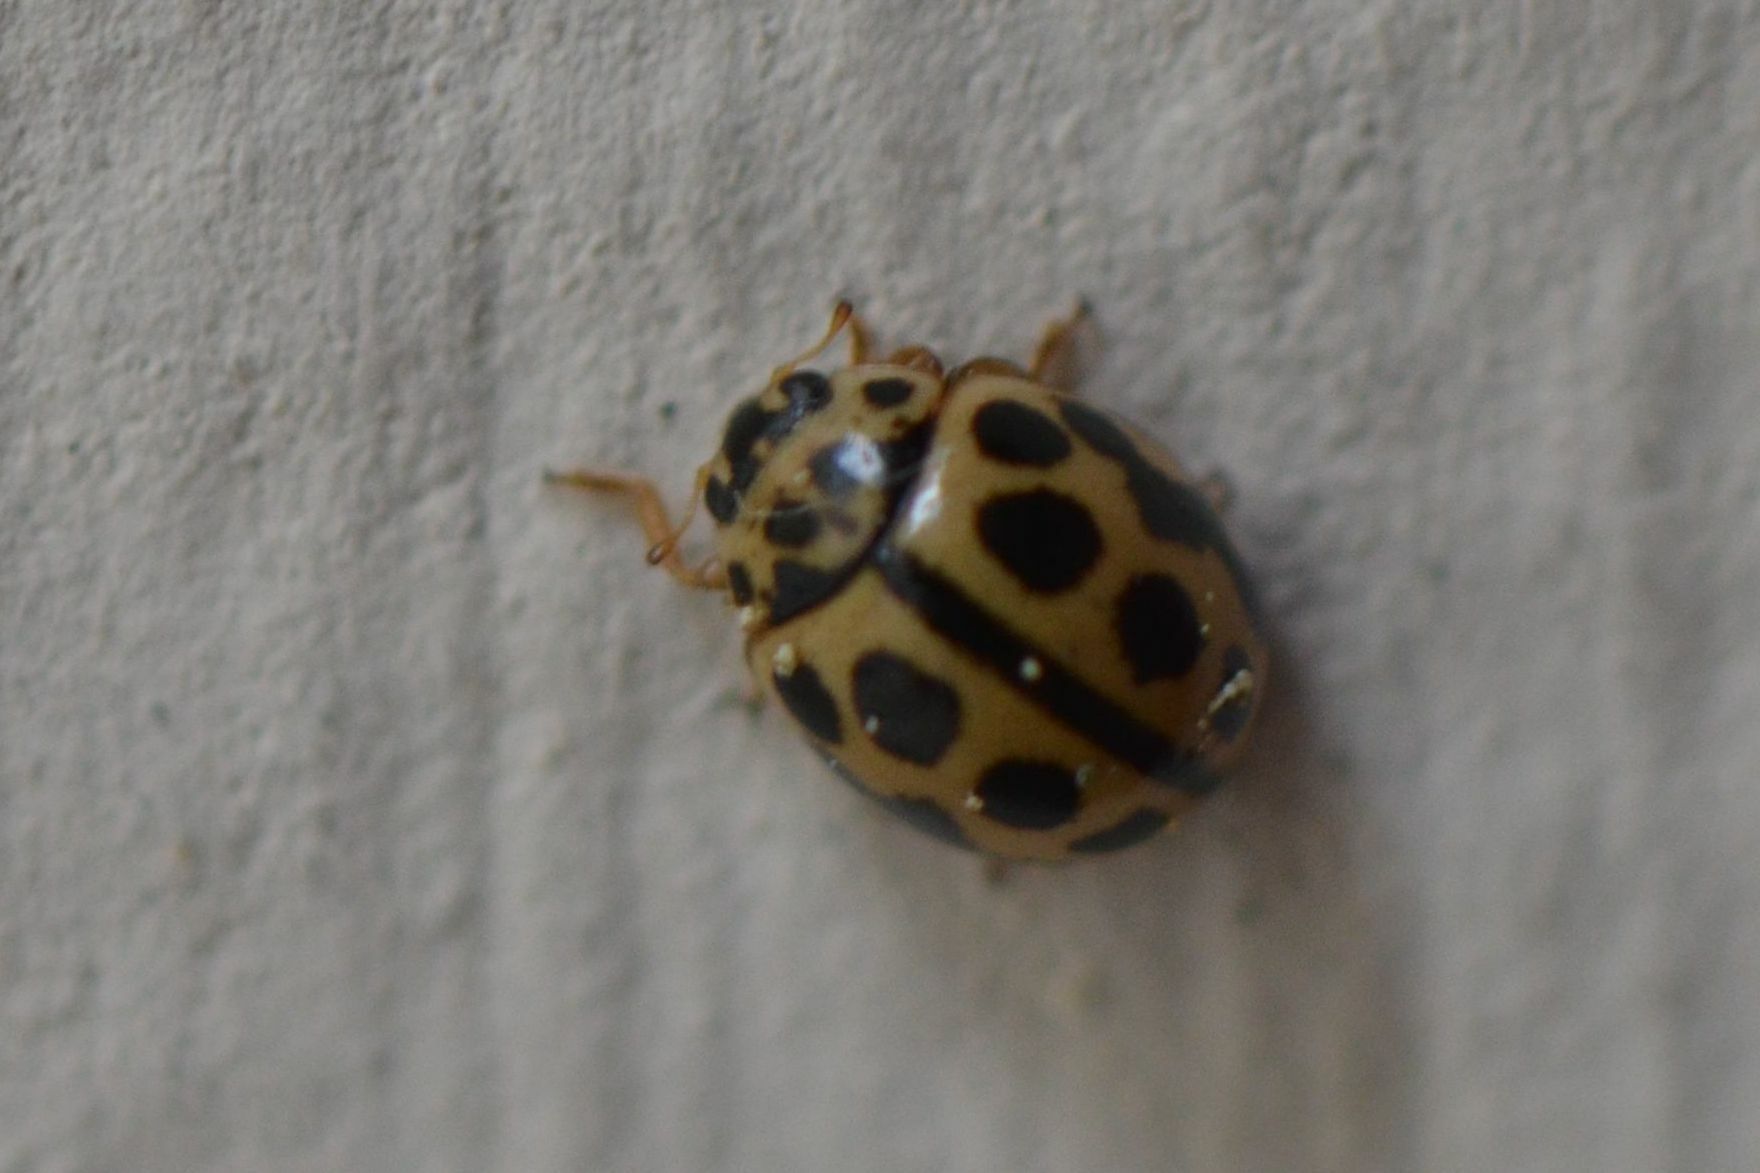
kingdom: Animalia
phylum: Arthropoda
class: Insecta
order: Coleoptera
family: Coccinellidae
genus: Tytthaspis
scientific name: Tytthaspis sedecimpunctata
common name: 16-spot ladybird
